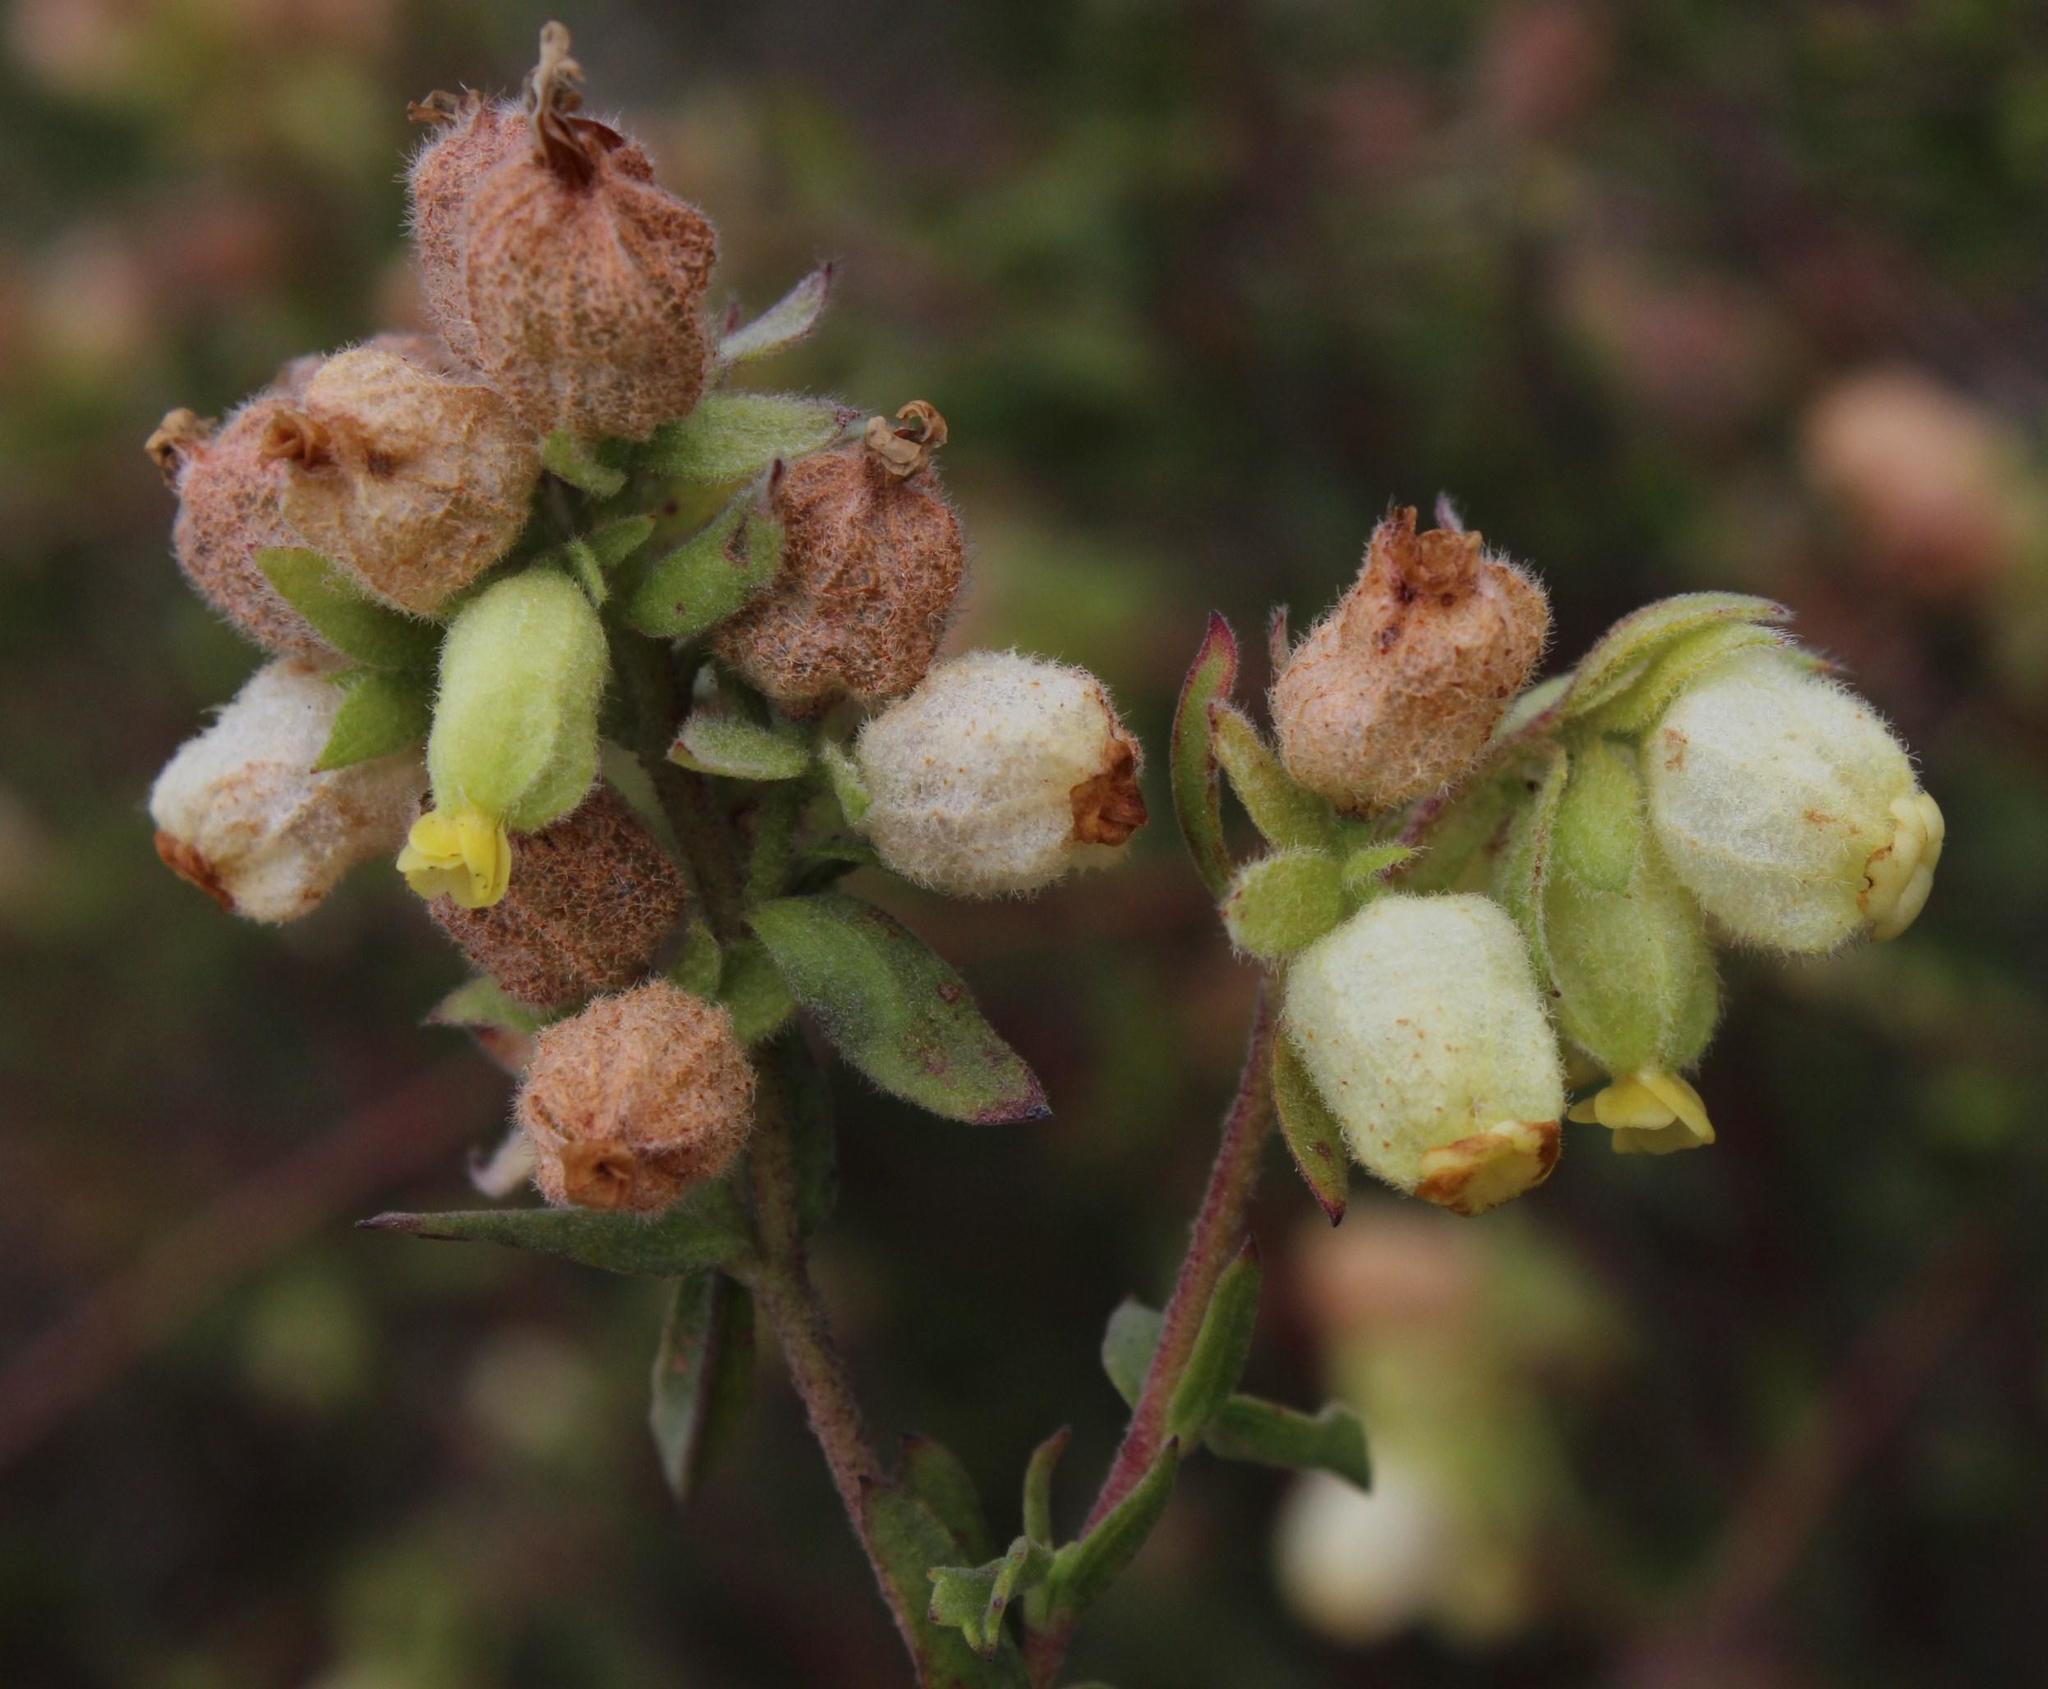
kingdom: Plantae
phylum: Tracheophyta
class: Magnoliopsida
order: Malvales
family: Malvaceae
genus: Hermannia
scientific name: Hermannia hyssopifolia
